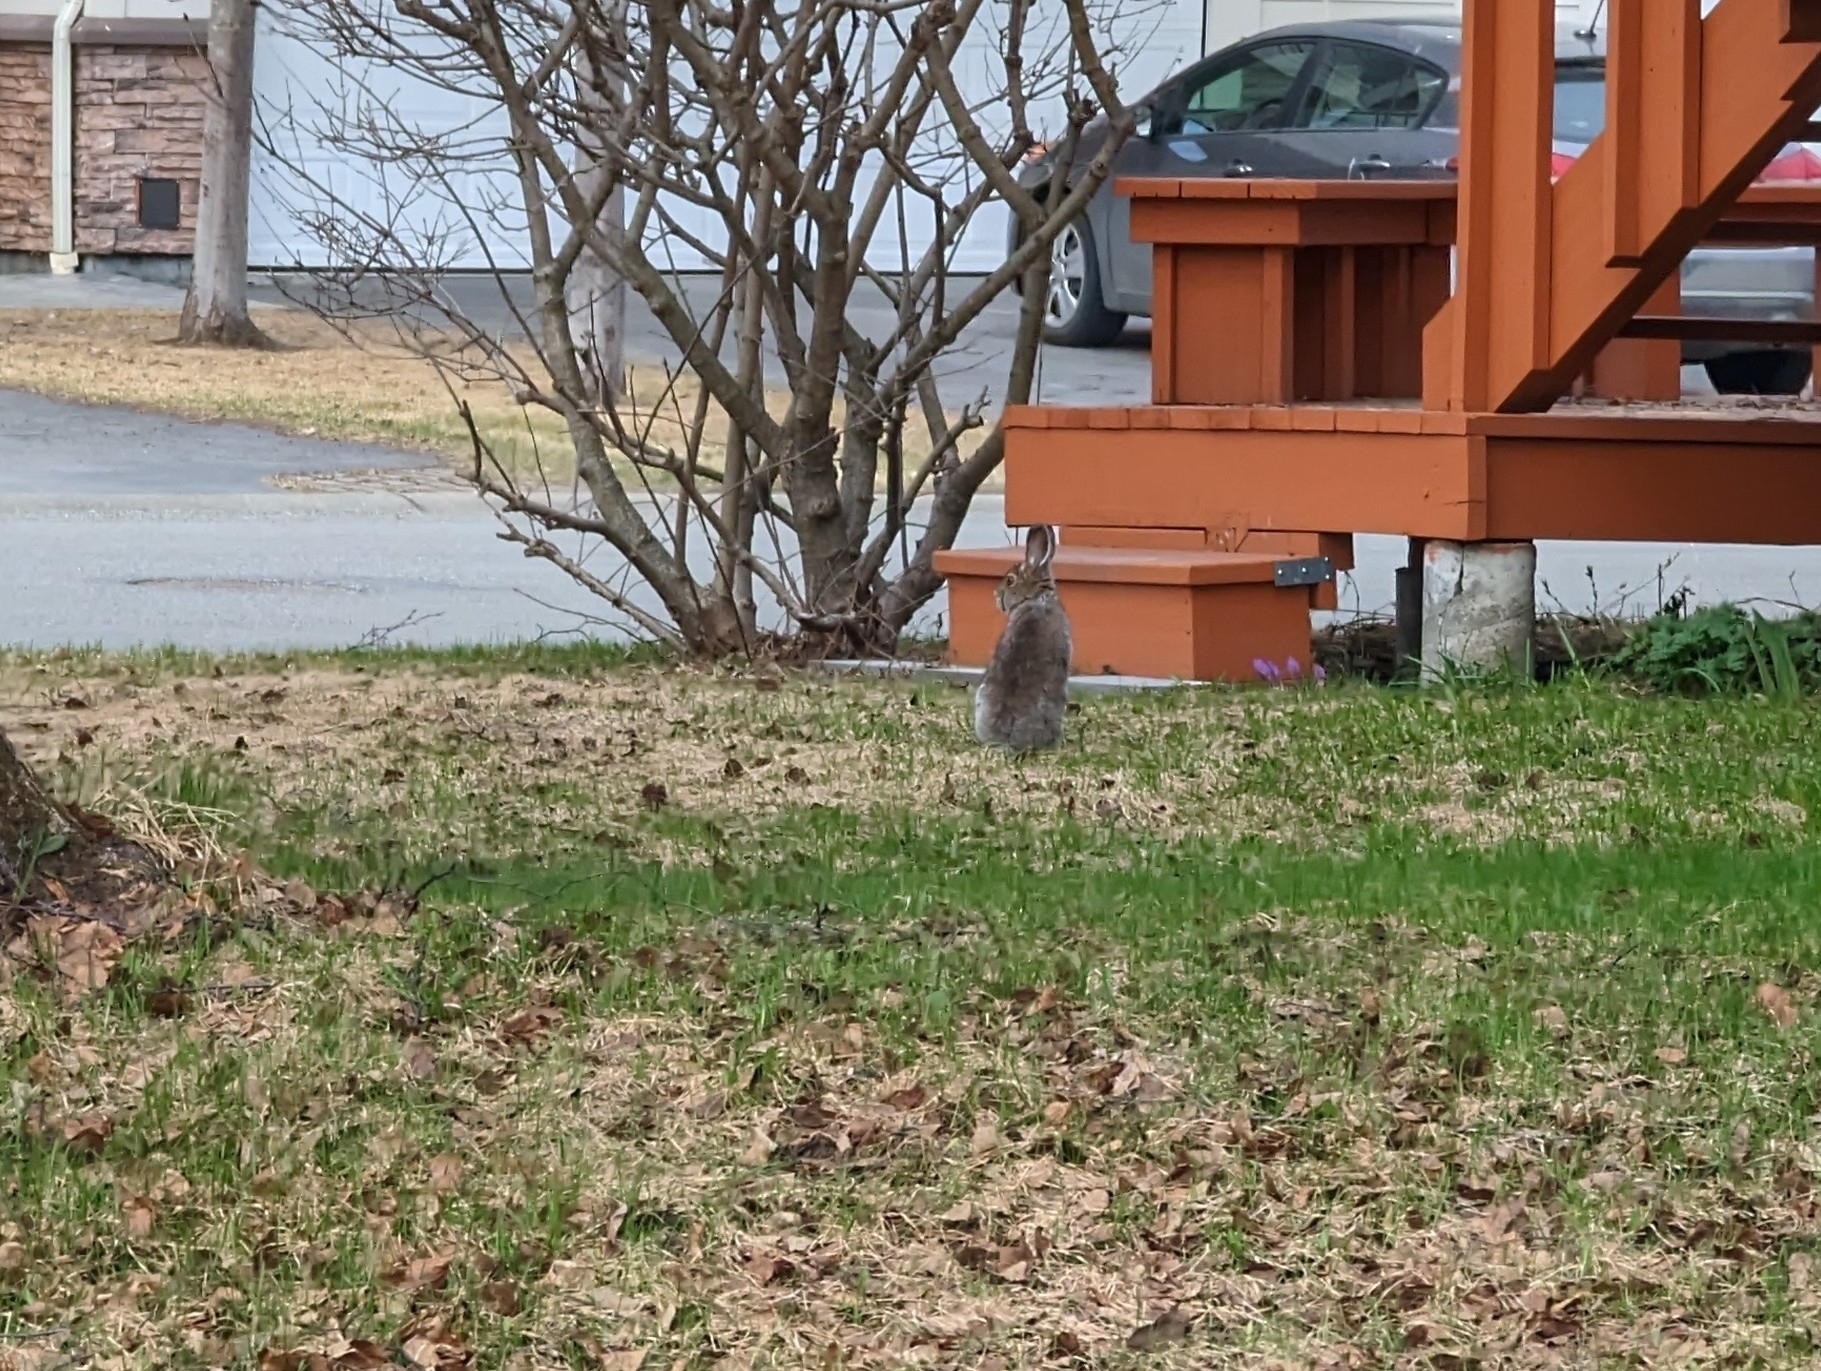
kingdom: Animalia
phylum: Chordata
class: Mammalia
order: Lagomorpha
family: Leporidae
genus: Lepus
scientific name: Lepus americanus
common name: Snowshoe hare
